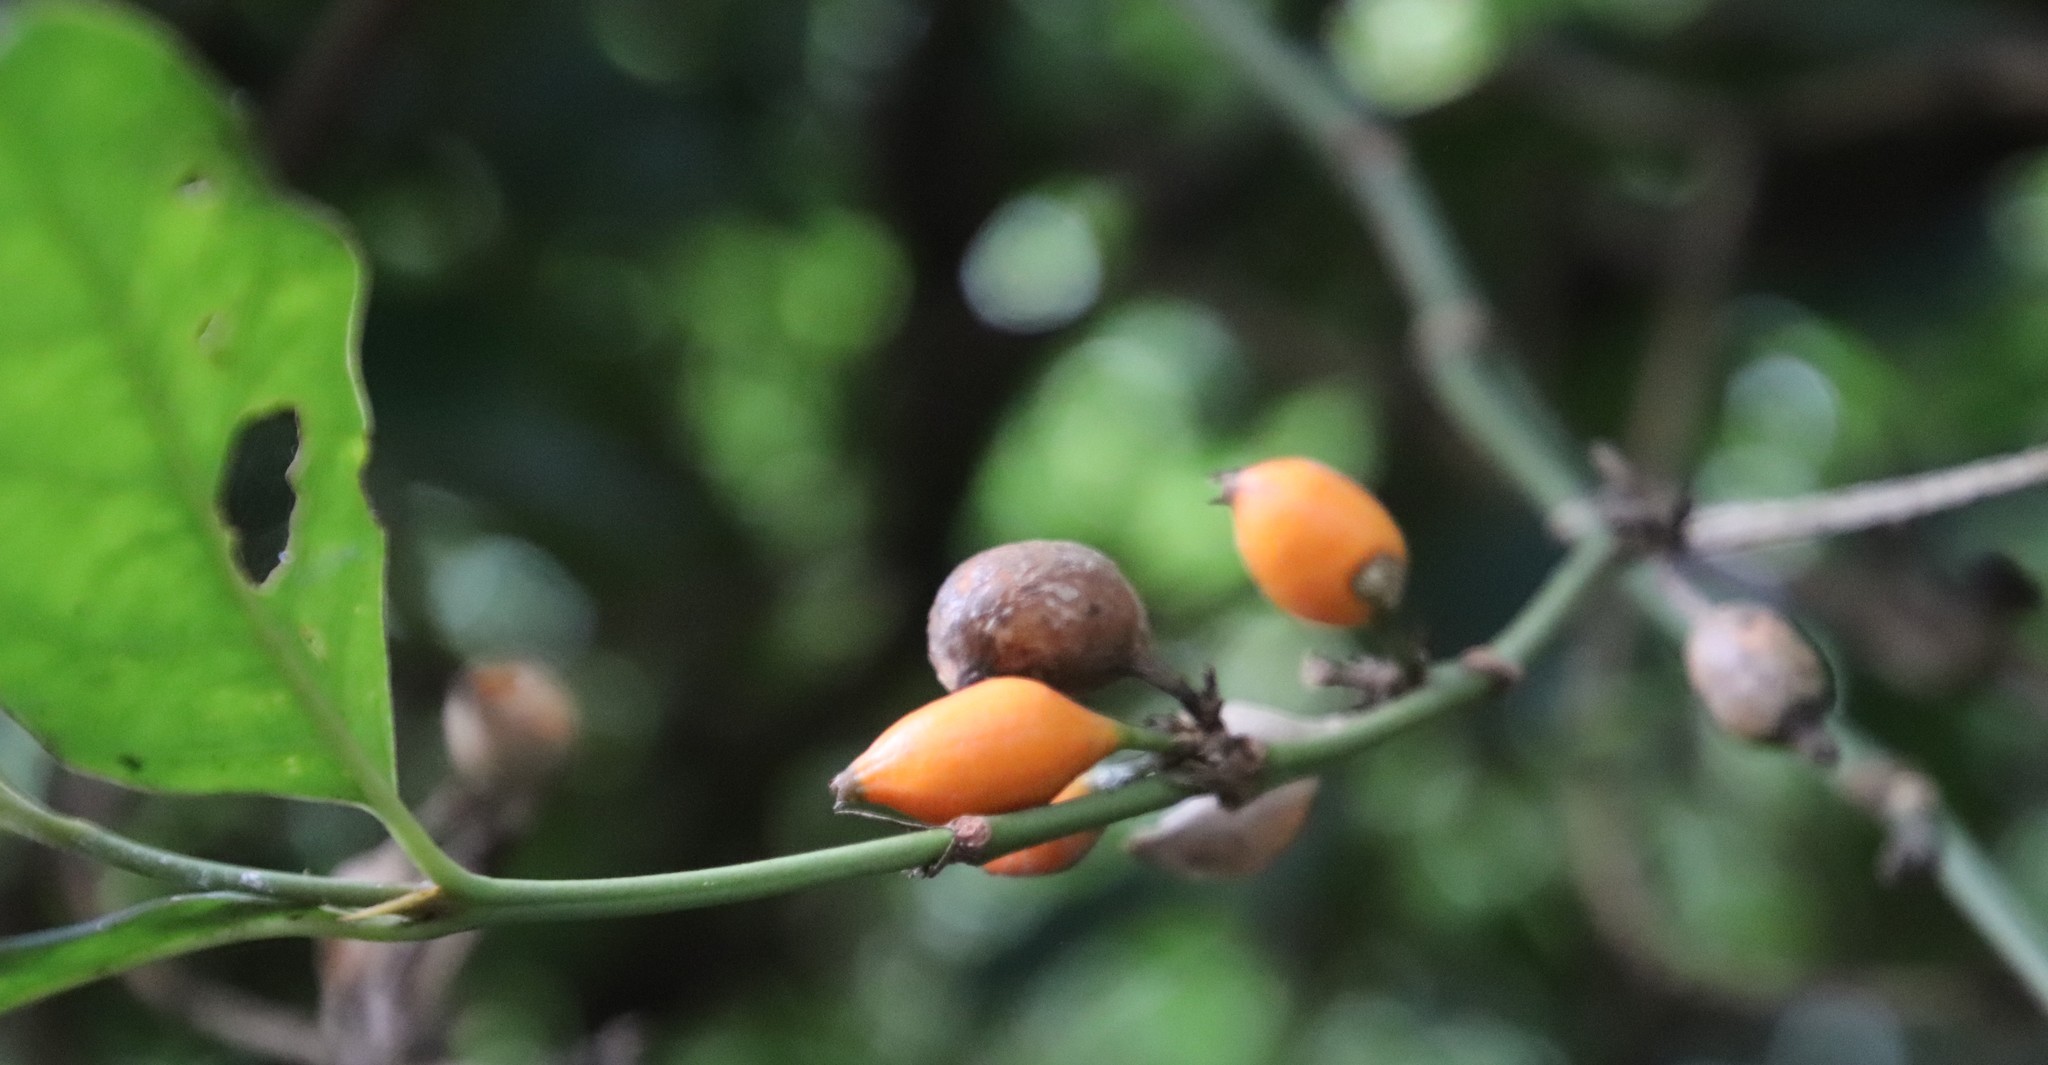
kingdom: Plantae
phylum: Tracheophyta
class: Magnoliopsida
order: Malpighiales
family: Rhizophoraceae
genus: Cassipourea
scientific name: Cassipourea gummiflua
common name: Large-leaved onionwood
